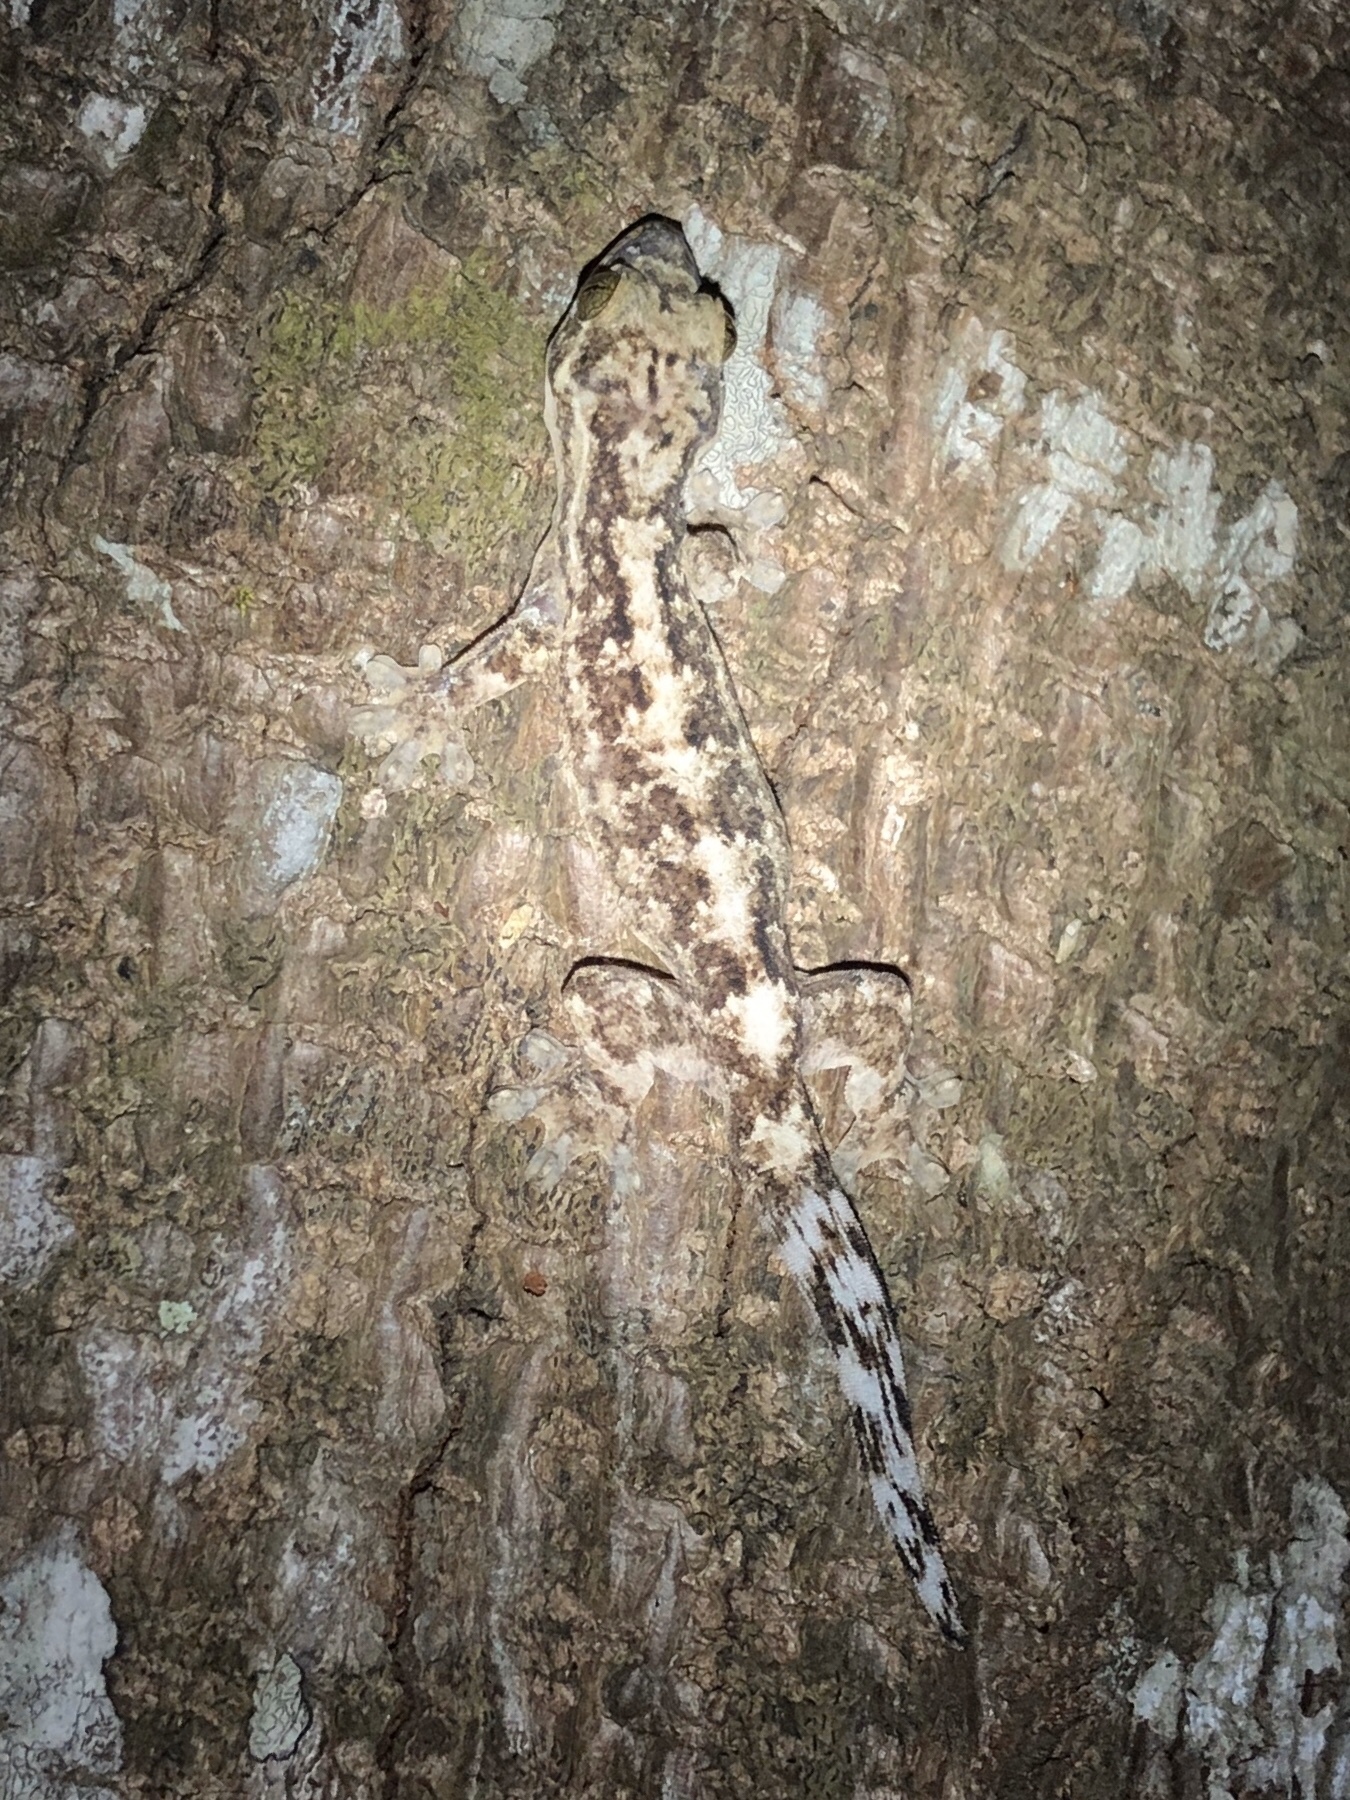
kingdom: Animalia
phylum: Chordata
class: Squamata
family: Phyllodactylidae
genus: Thecadactylus
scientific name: Thecadactylus rapicauda
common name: Turnip-tailed gecko
